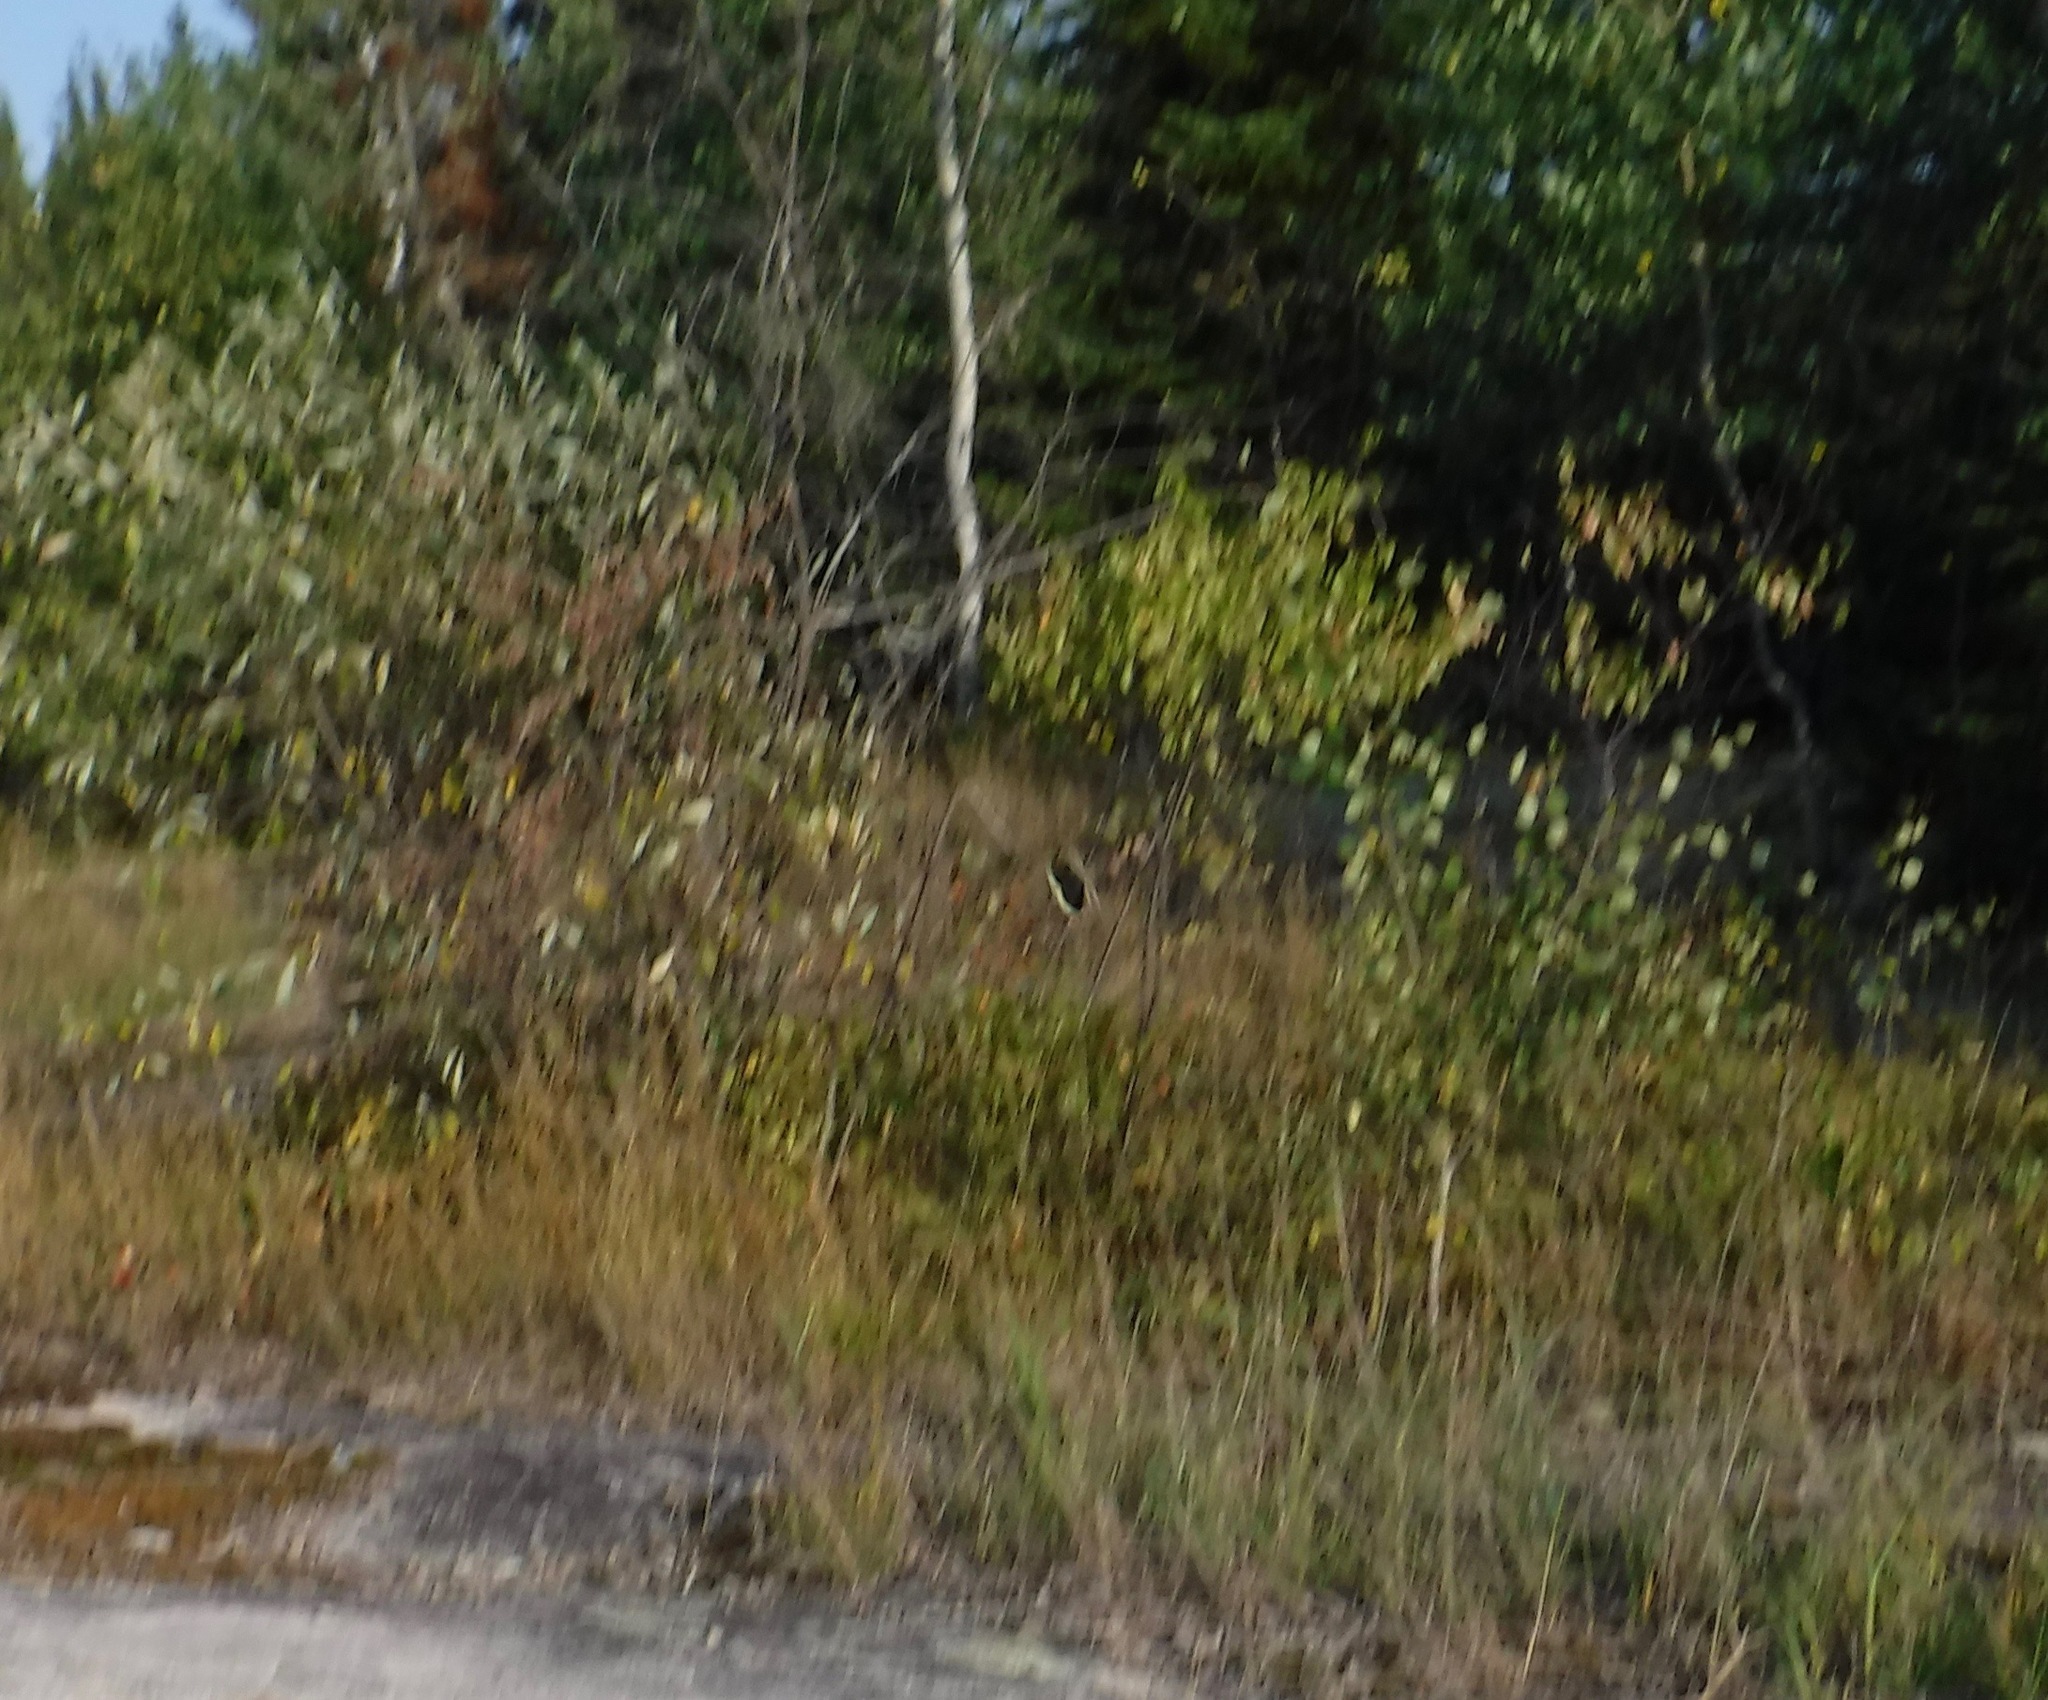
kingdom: Animalia
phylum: Arthropoda
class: Insecta
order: Orthoptera
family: Acrididae
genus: Dissosteira
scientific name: Dissosteira carolina
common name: Carolina grasshopper
